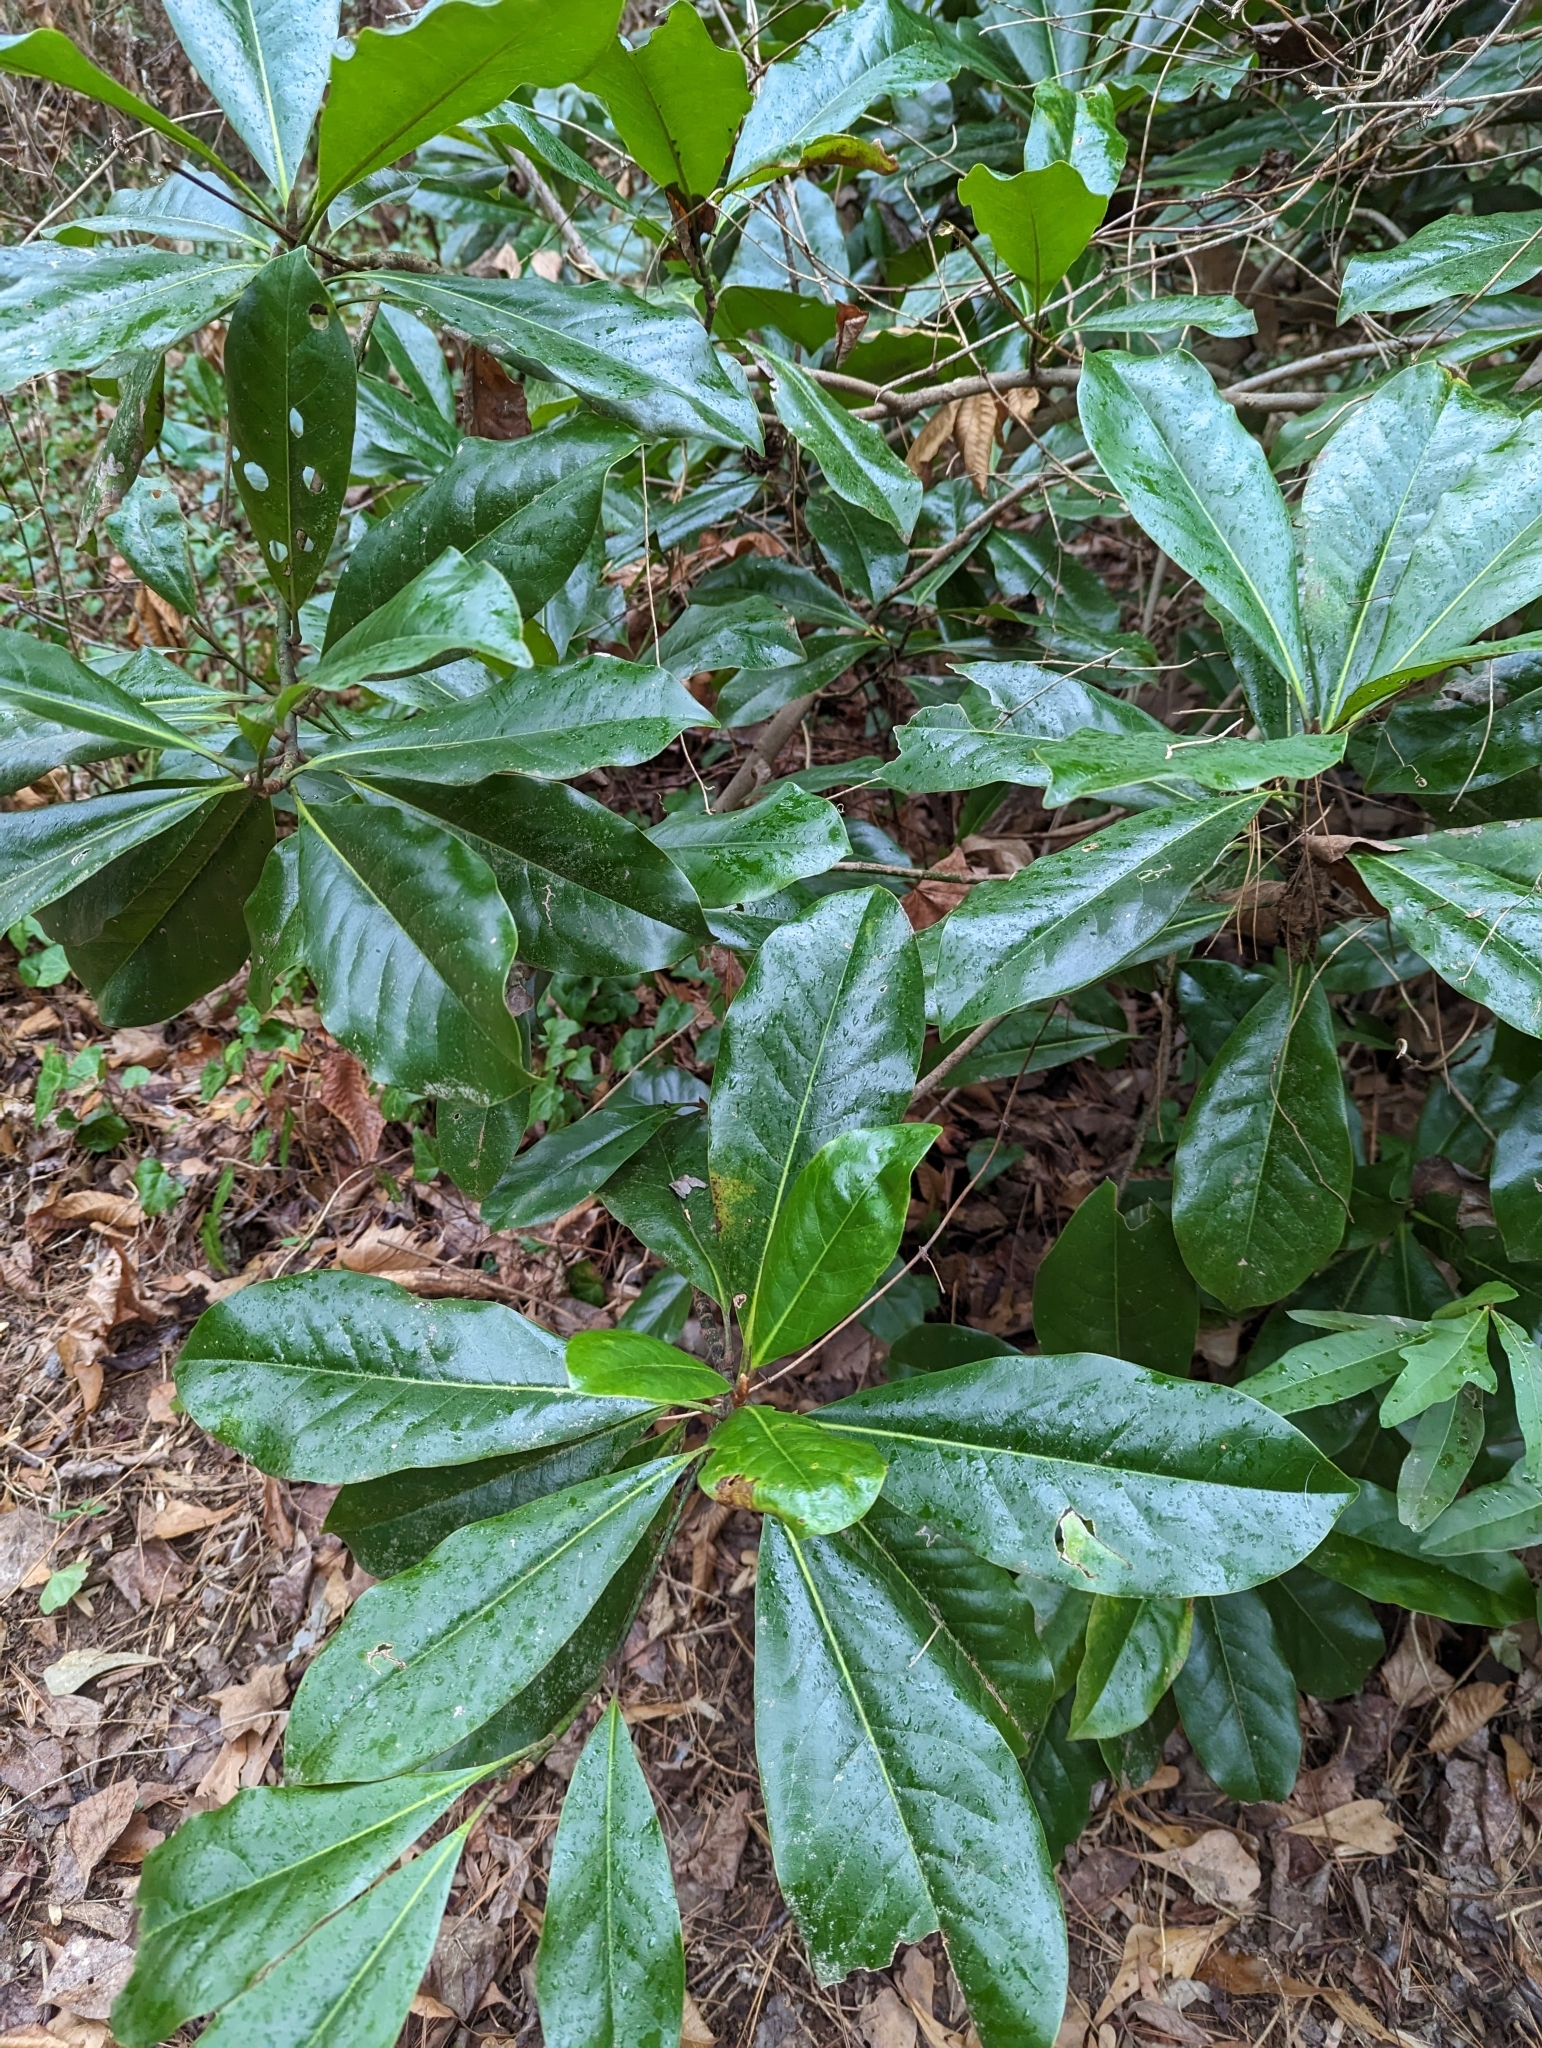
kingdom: Plantae
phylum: Tracheophyta
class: Magnoliopsida
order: Magnoliales
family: Magnoliaceae
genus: Magnolia
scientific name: Magnolia grandiflora
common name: Southern magnolia
